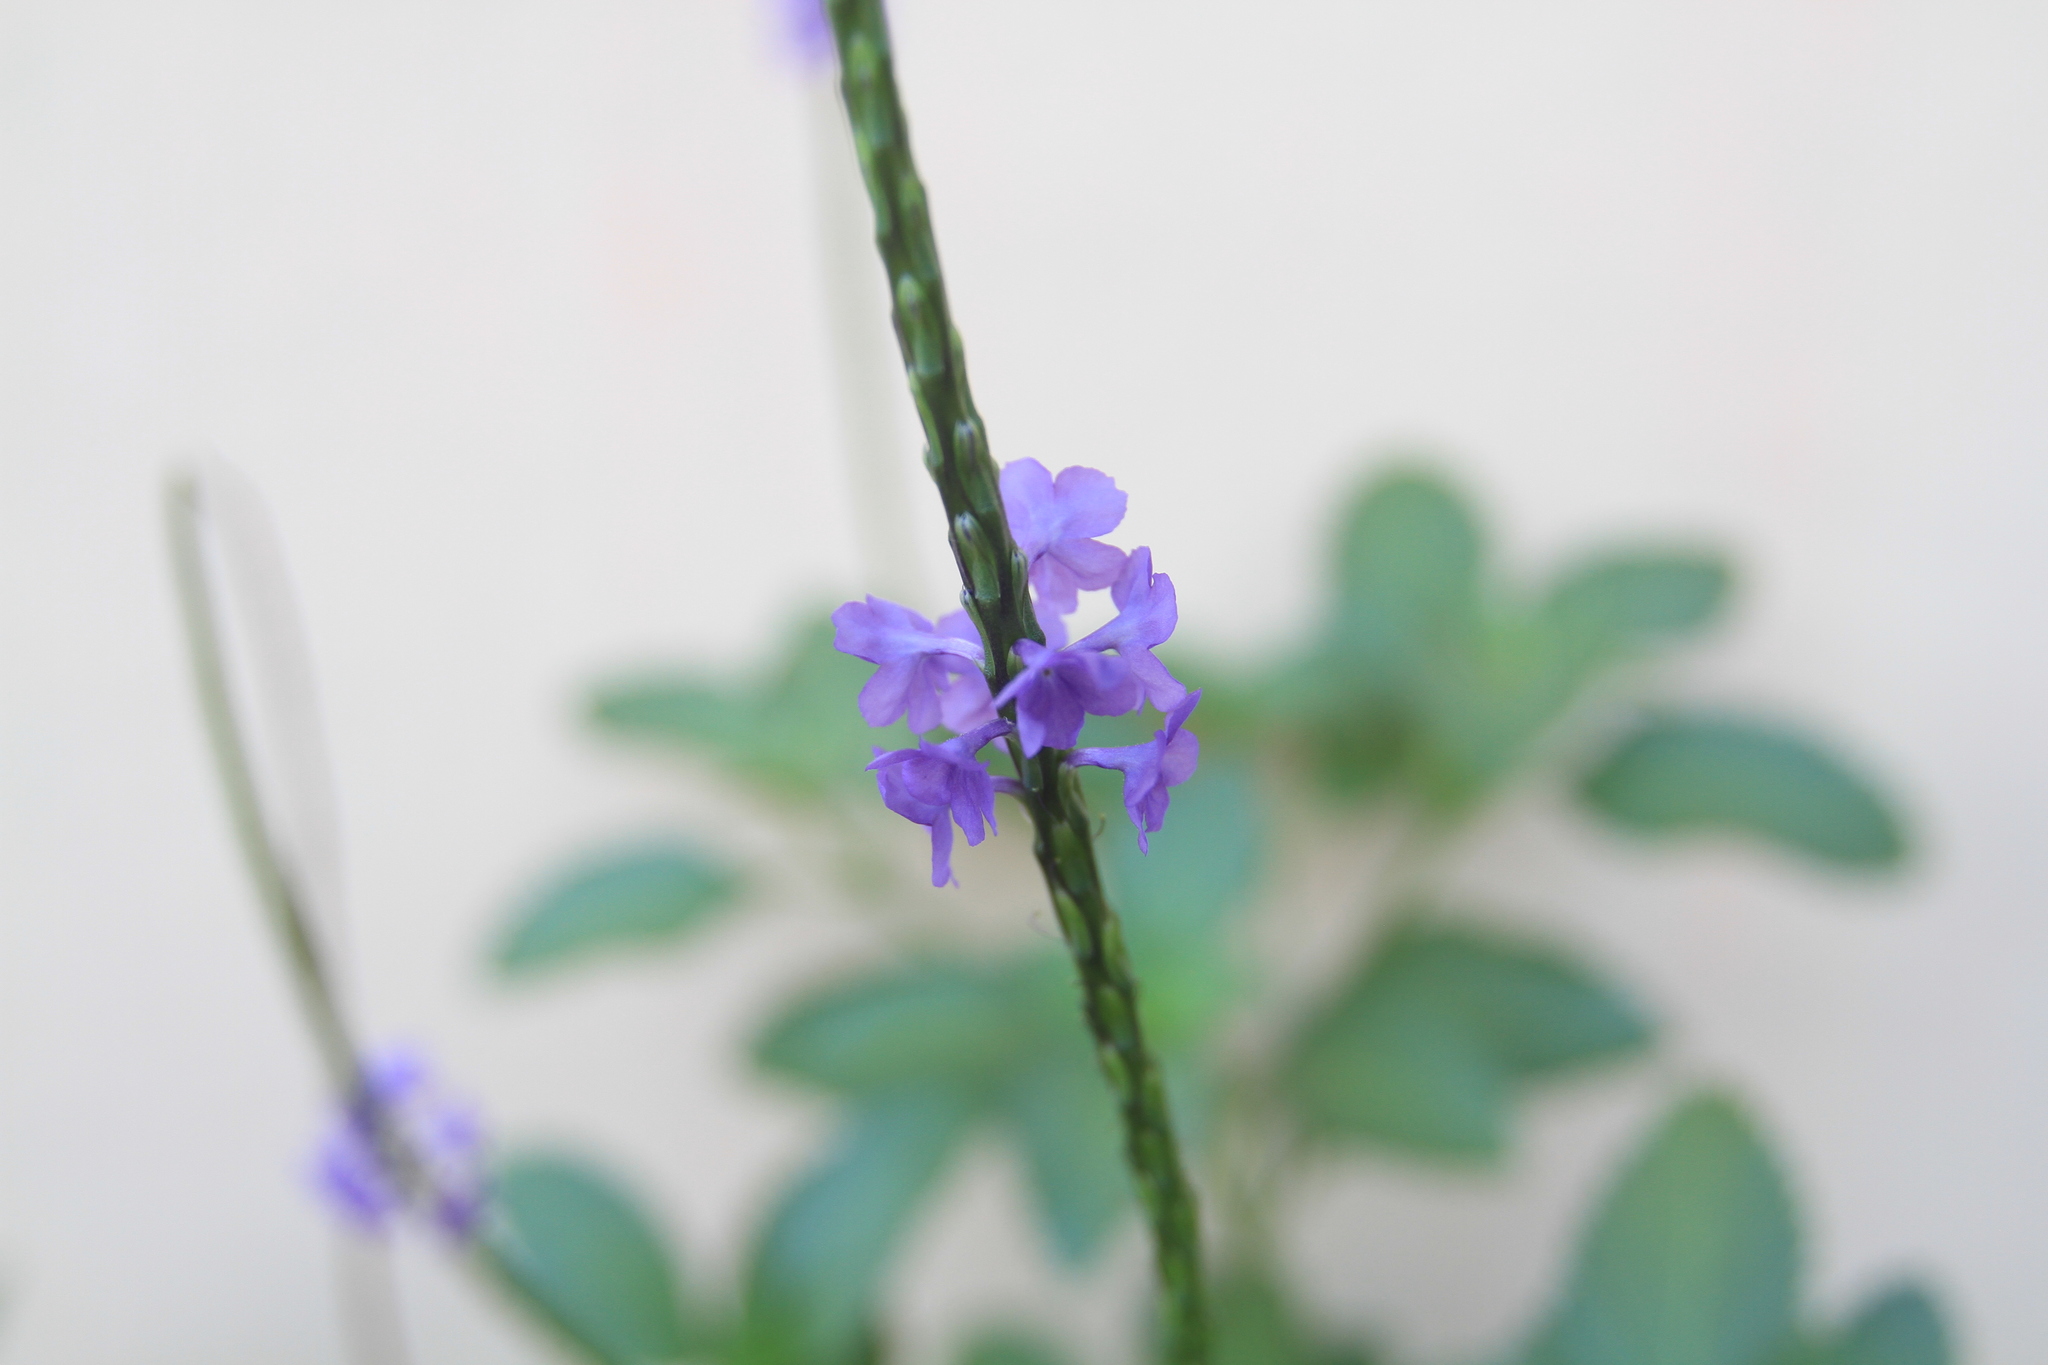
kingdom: Plantae
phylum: Tracheophyta
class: Magnoliopsida
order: Lamiales
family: Verbenaceae
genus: Stachytarpheta
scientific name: Stachytarpheta jamaicensis
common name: Light-blue snakeweed
